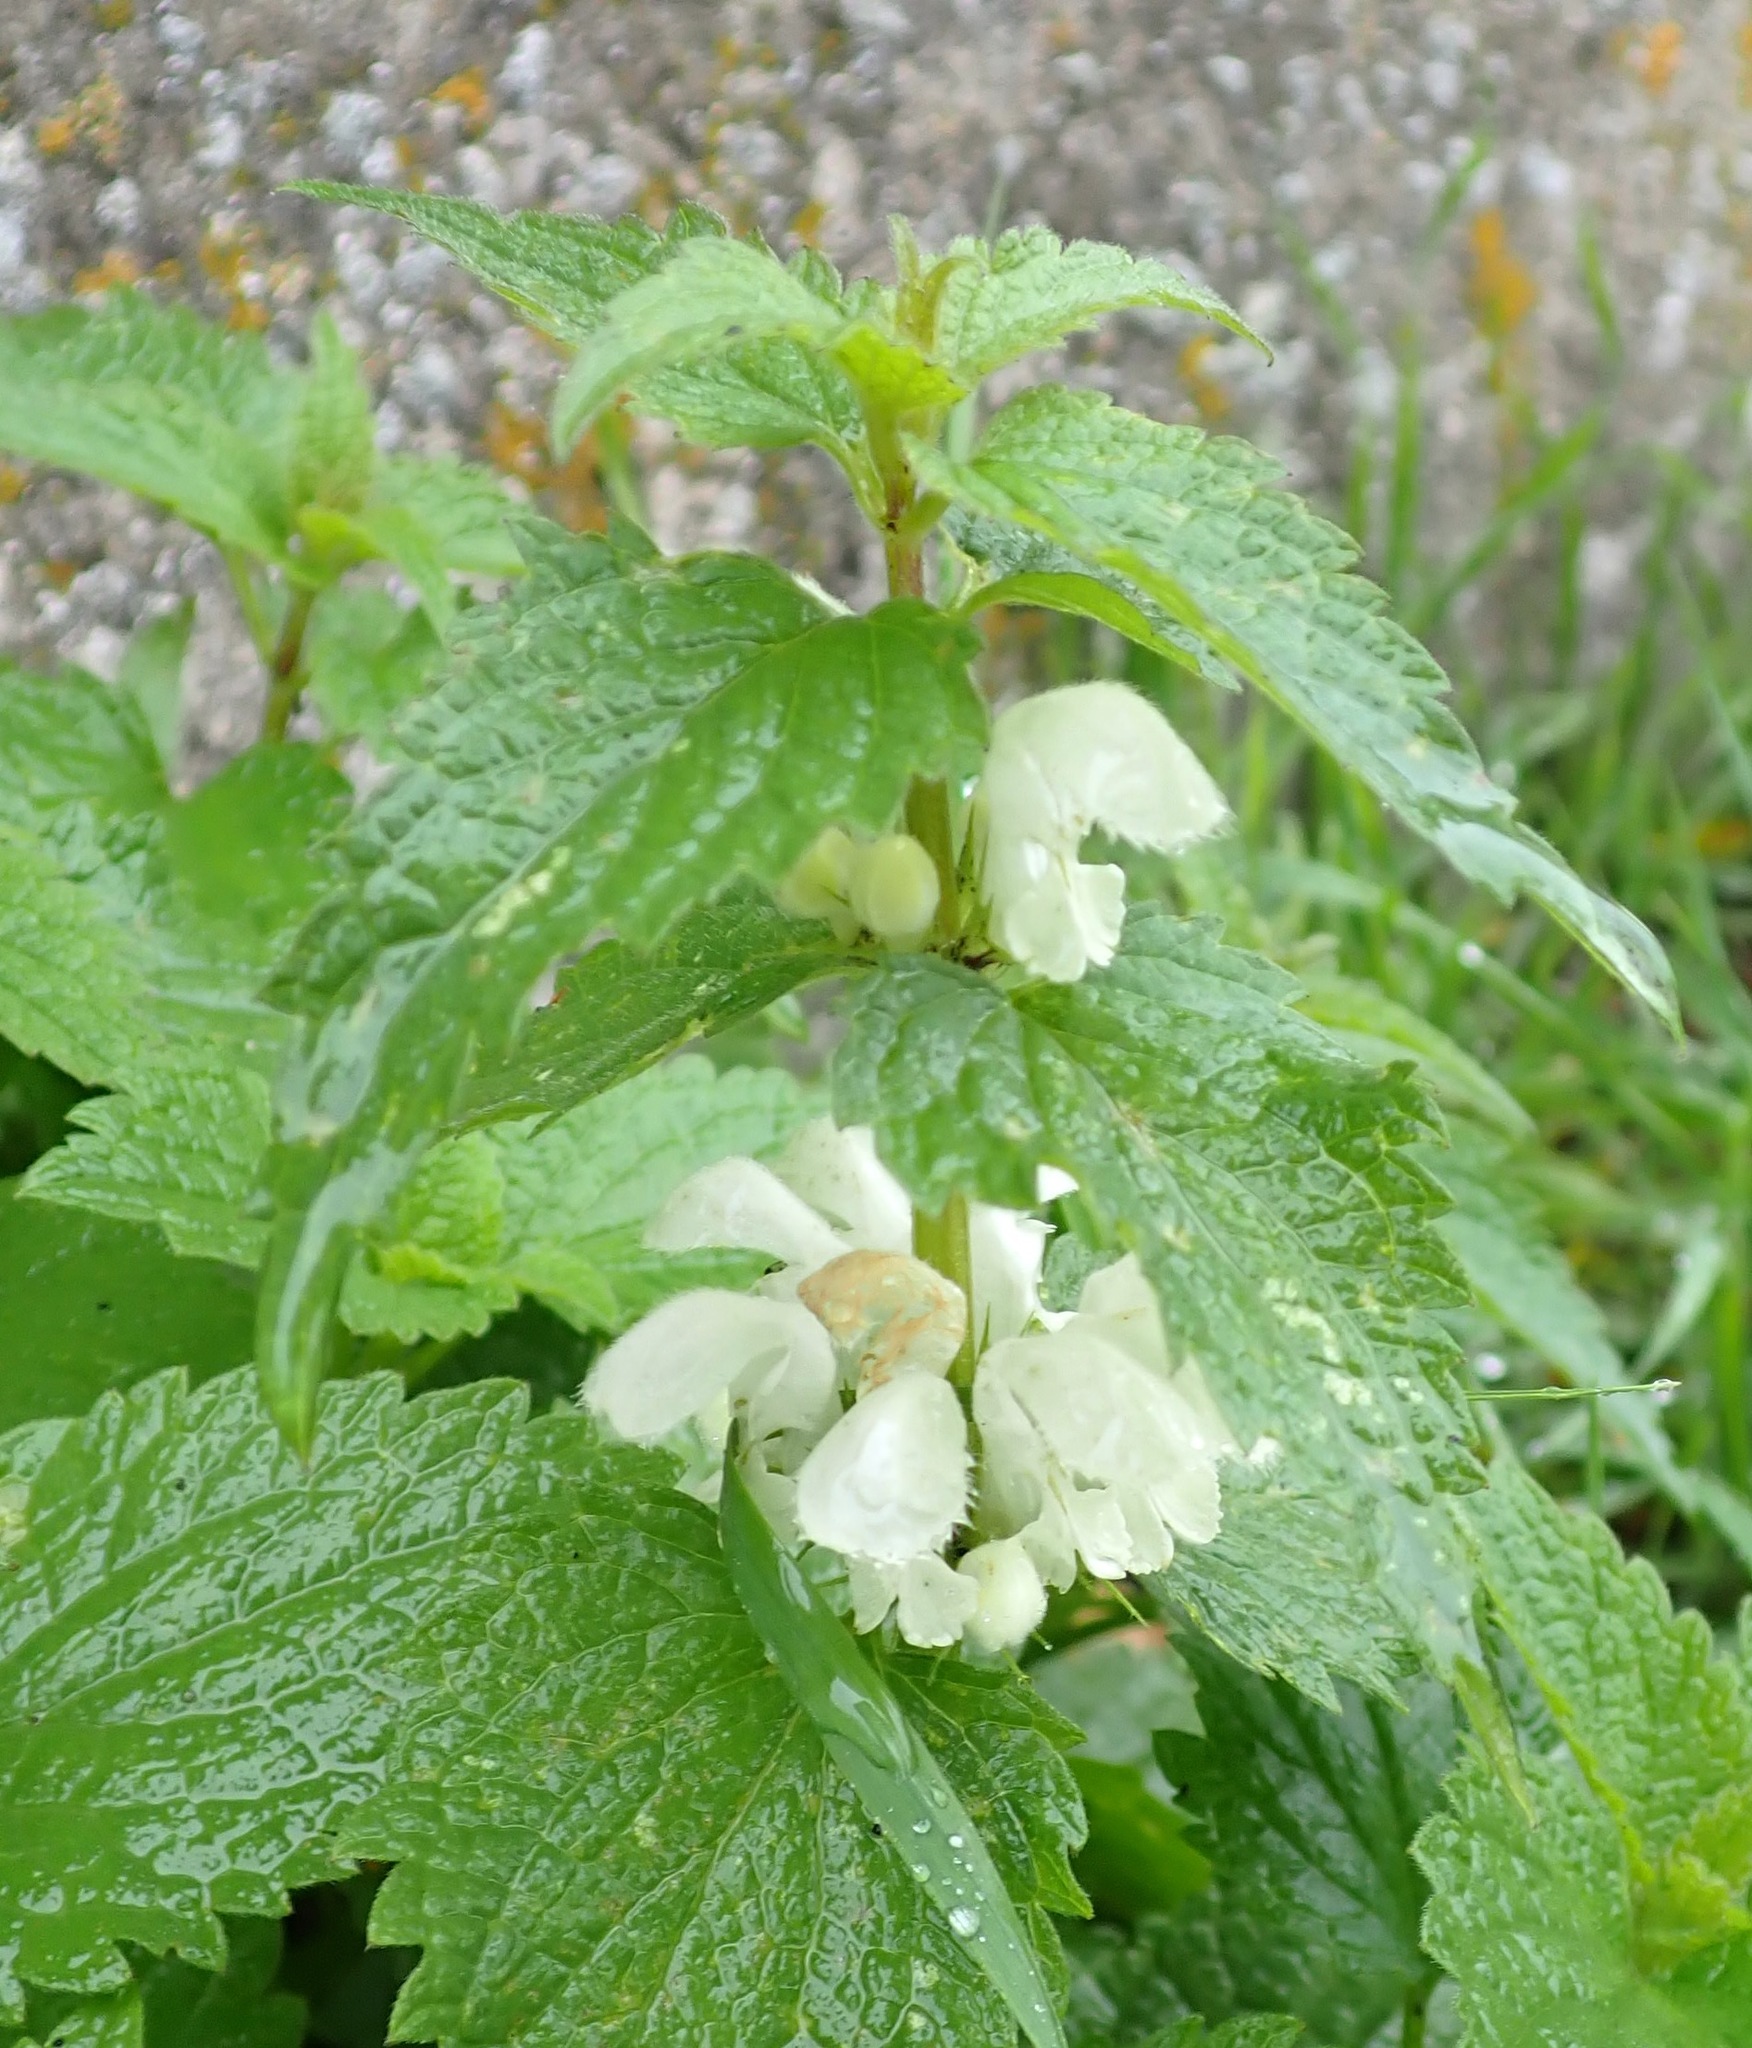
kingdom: Plantae
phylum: Tracheophyta
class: Magnoliopsida
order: Lamiales
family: Lamiaceae
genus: Lamium
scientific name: Lamium album
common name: White dead-nettle
